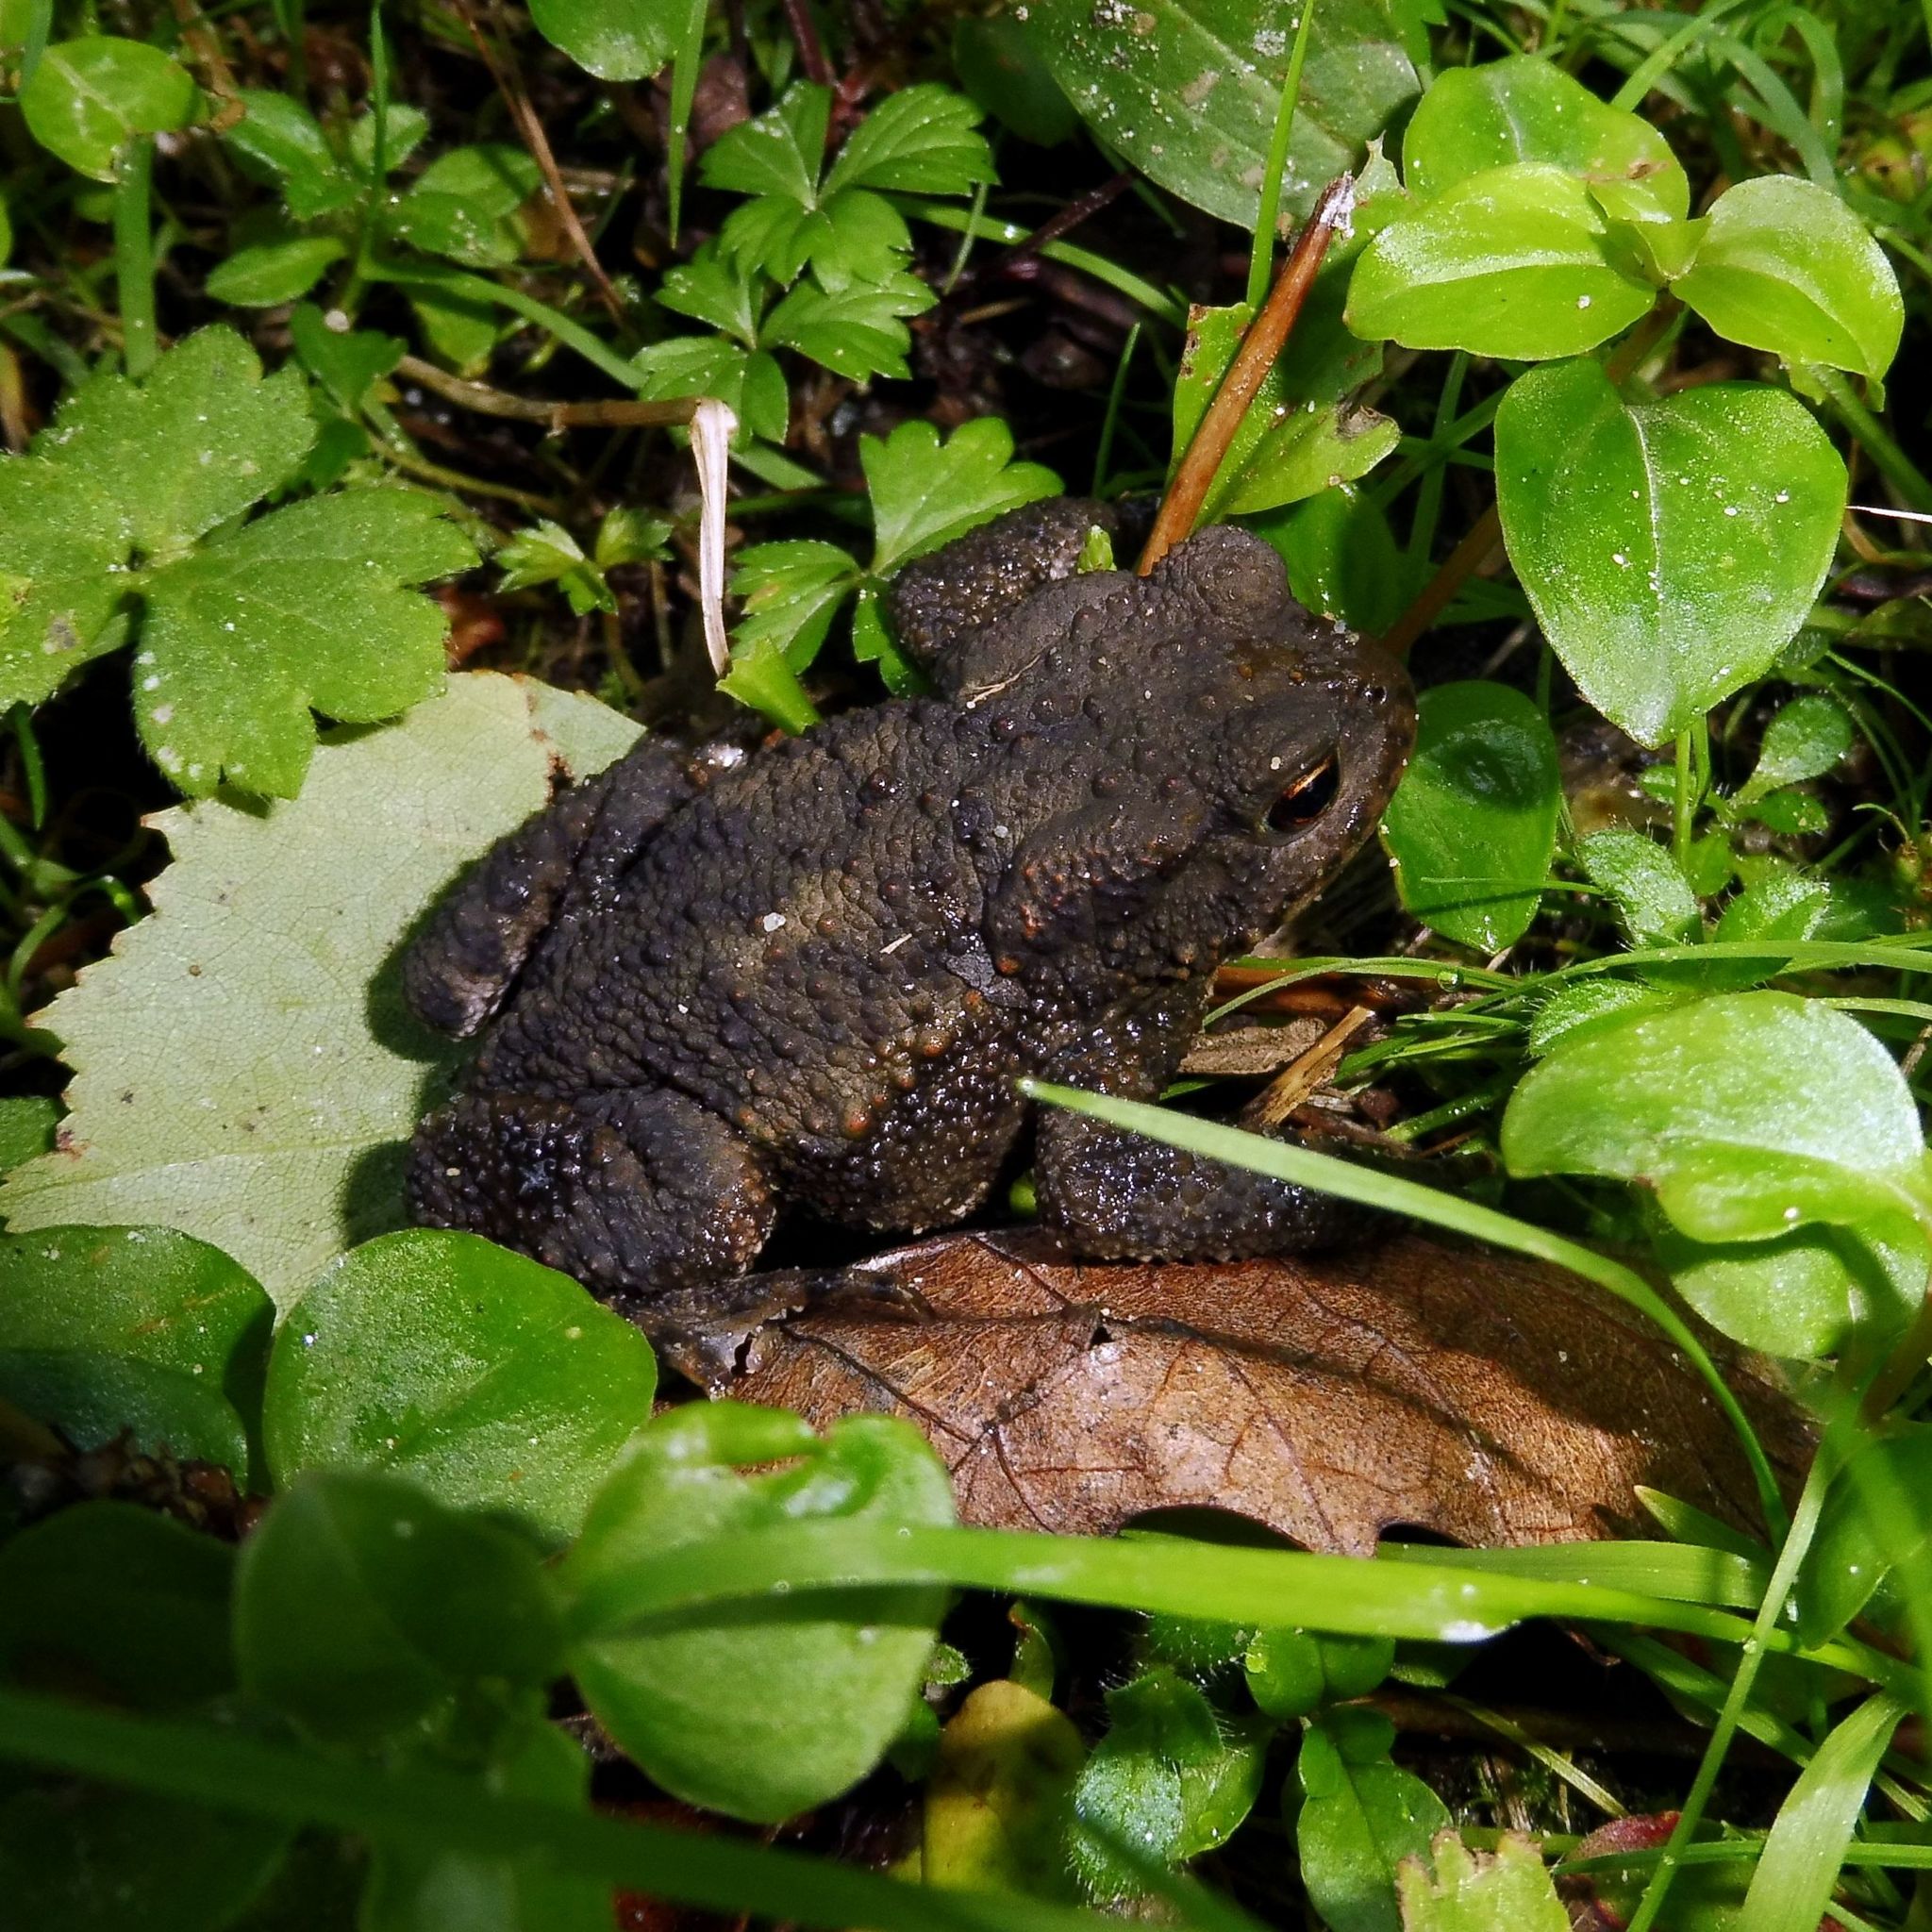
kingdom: Animalia
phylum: Chordata
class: Amphibia
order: Anura
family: Bufonidae
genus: Bufo
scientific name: Bufo bufo
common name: Common toad
